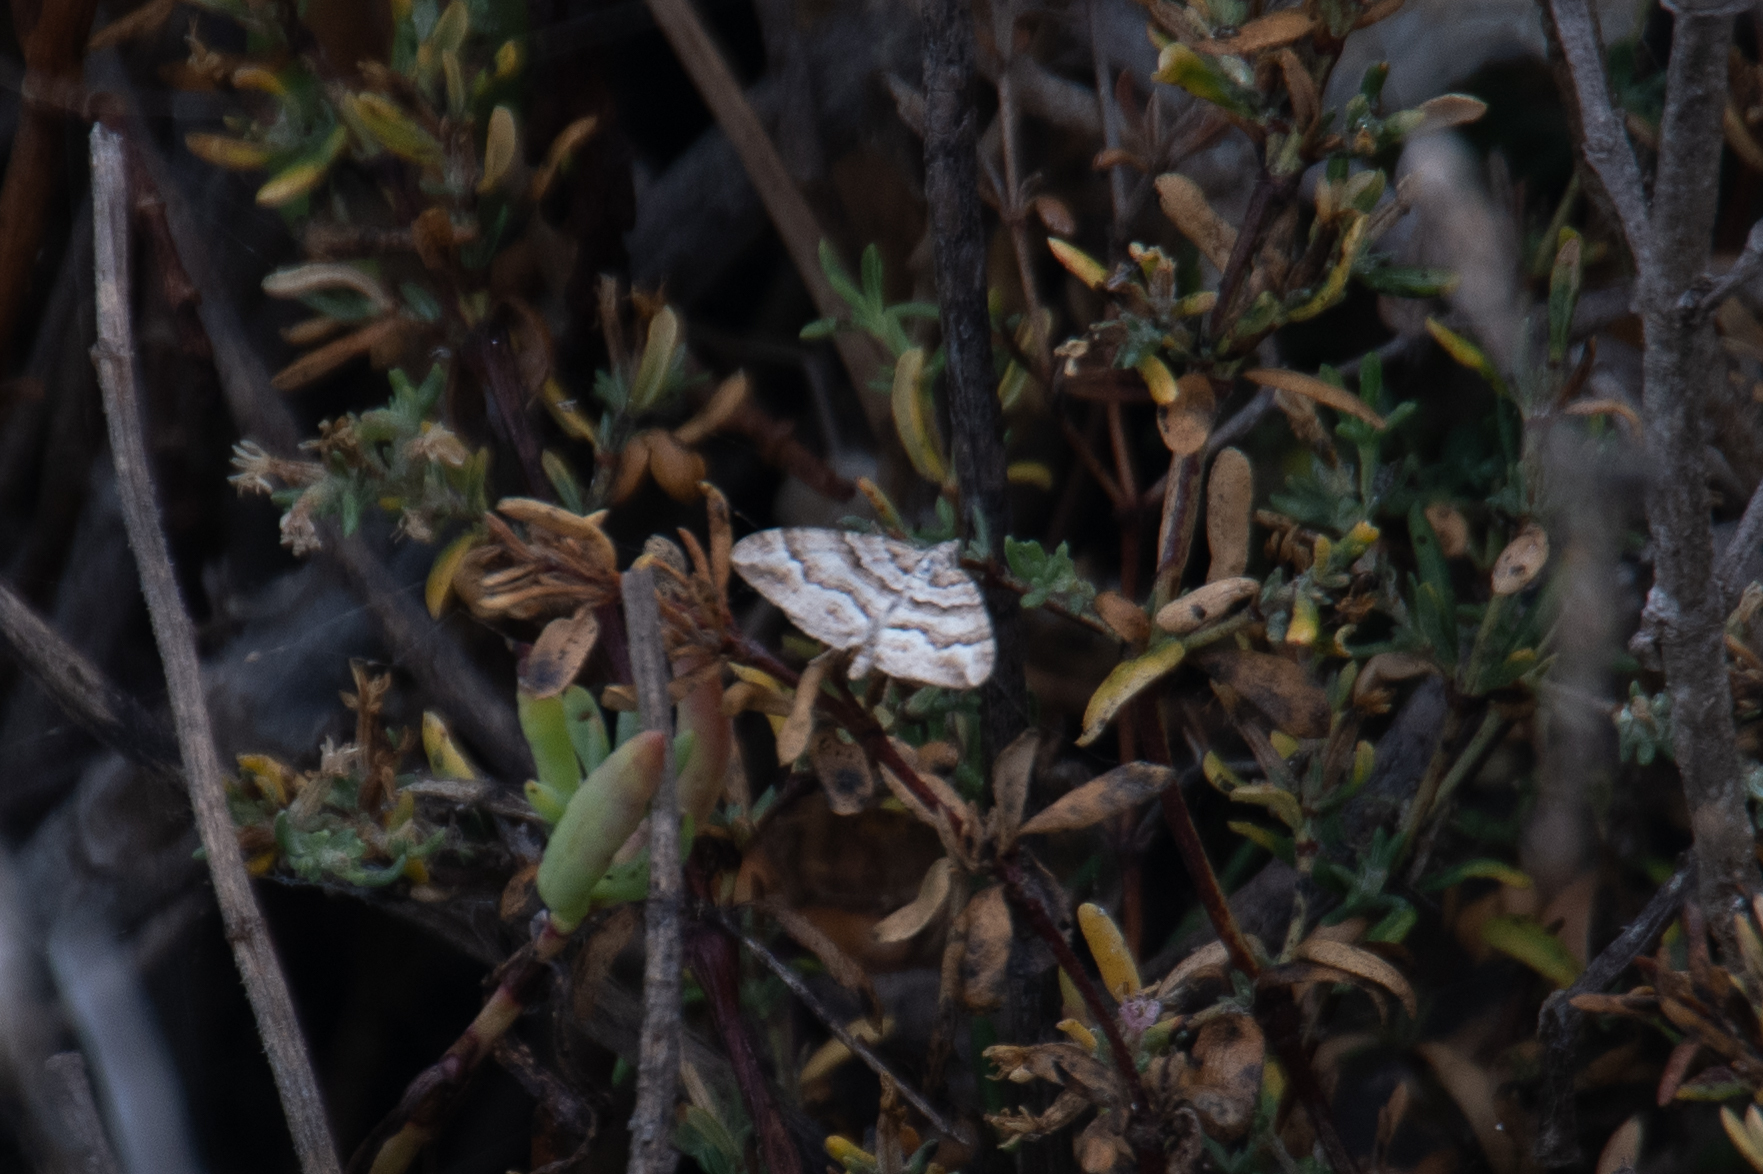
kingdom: Animalia
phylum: Arthropoda
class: Insecta
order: Lepidoptera
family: Geometridae
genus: Perizoma
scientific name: Perizoma epictata
